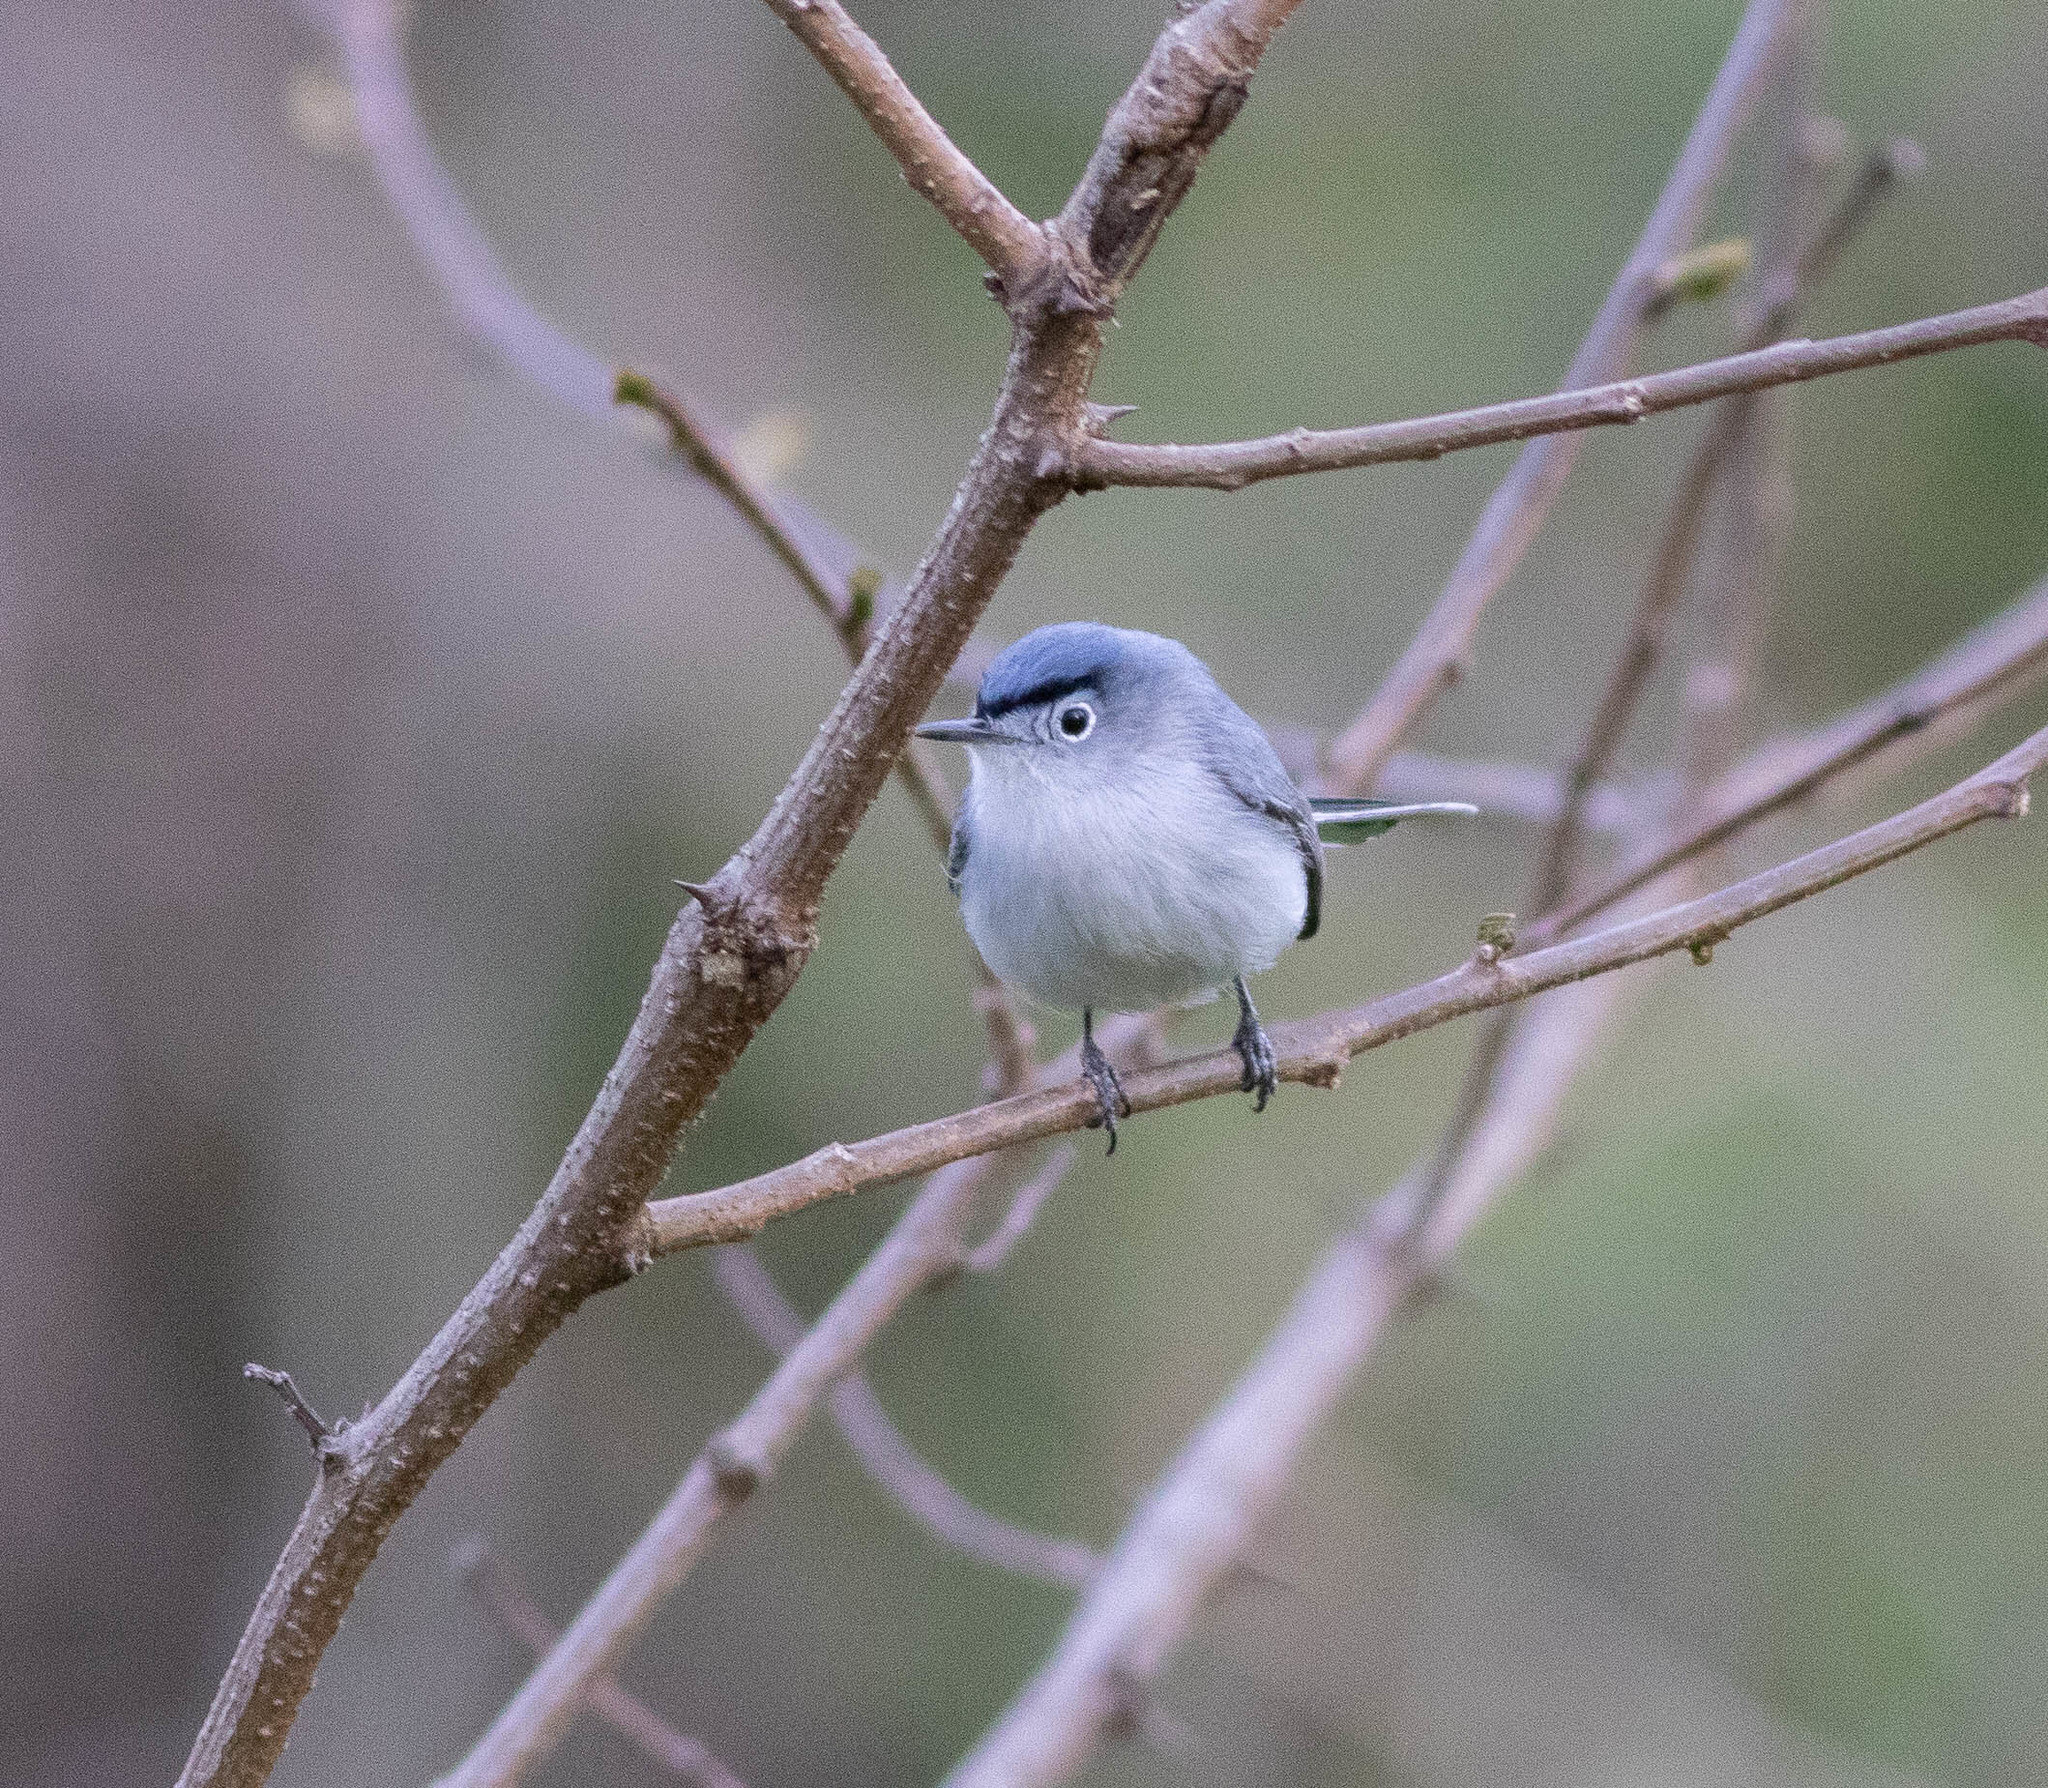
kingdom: Animalia
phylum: Chordata
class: Aves
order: Passeriformes
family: Polioptilidae
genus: Polioptila
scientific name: Polioptila caerulea
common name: Blue-gray gnatcatcher
